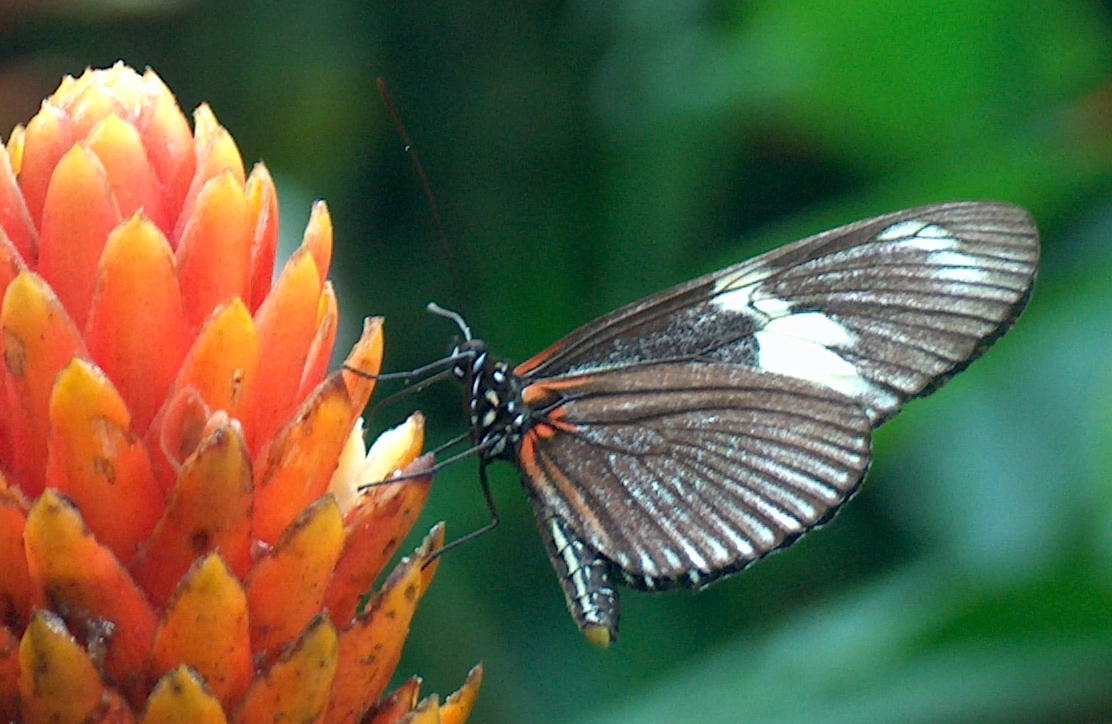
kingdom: Animalia
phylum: Arthropoda
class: Insecta
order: Lepidoptera
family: Nymphalidae
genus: Heliconius
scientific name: Heliconius doris
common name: Doris longwing
